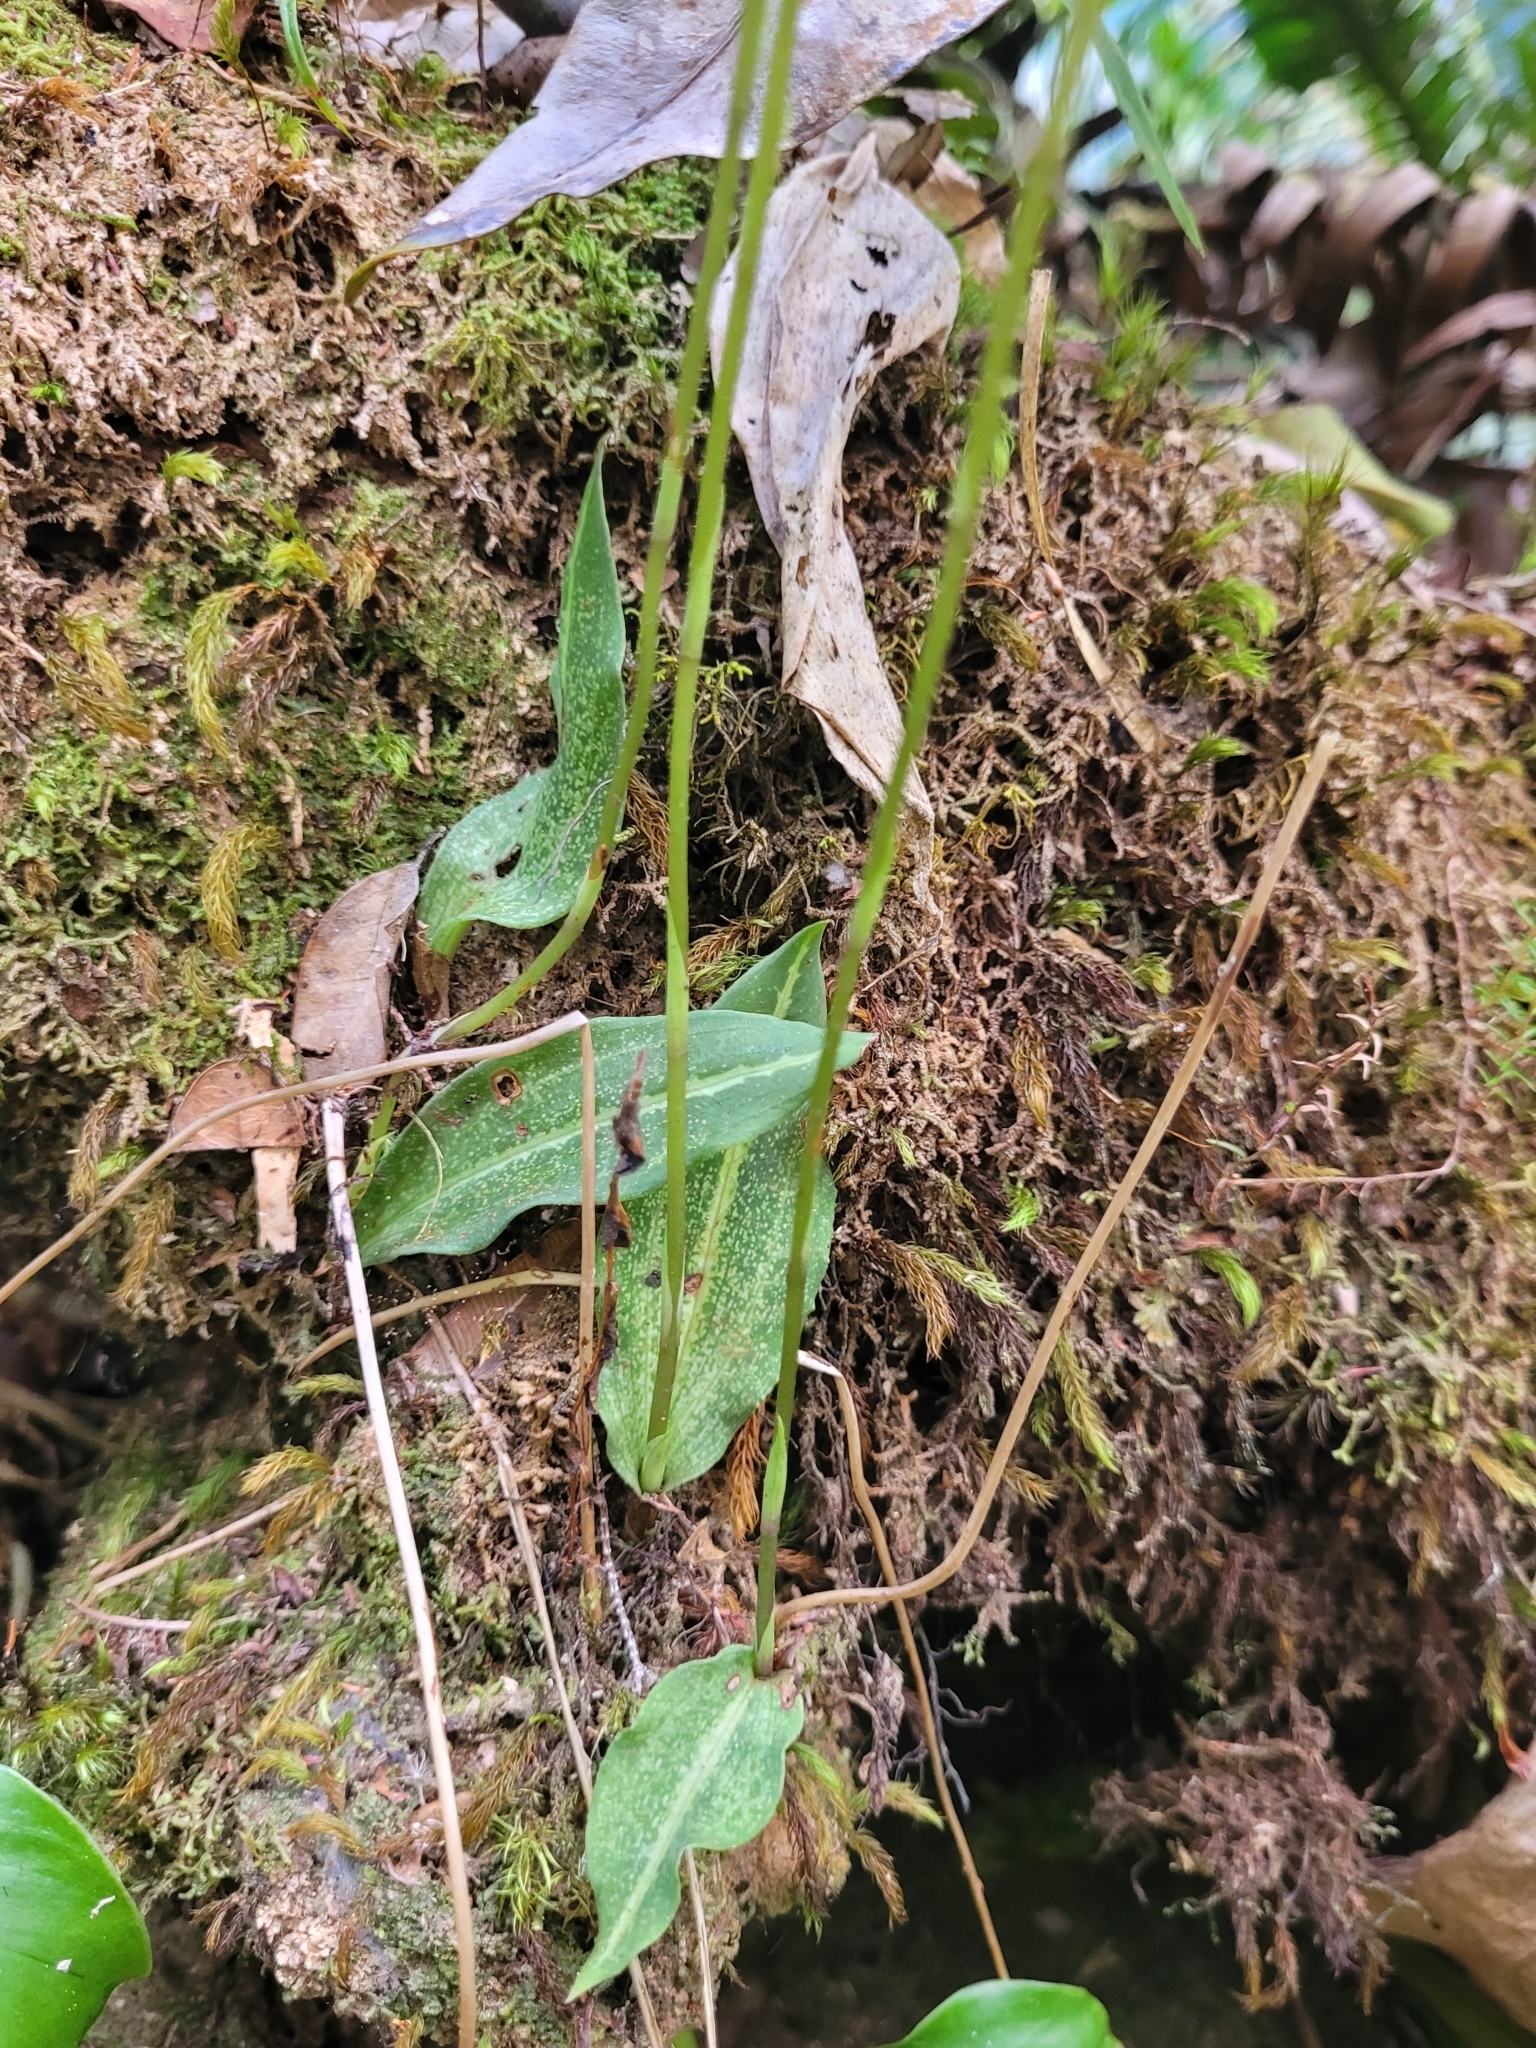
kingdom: Plantae
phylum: Tracheophyta
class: Liliopsida
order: Asparagales
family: Orchidaceae
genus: Cynorkis
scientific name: Cynorkis ridleyi
